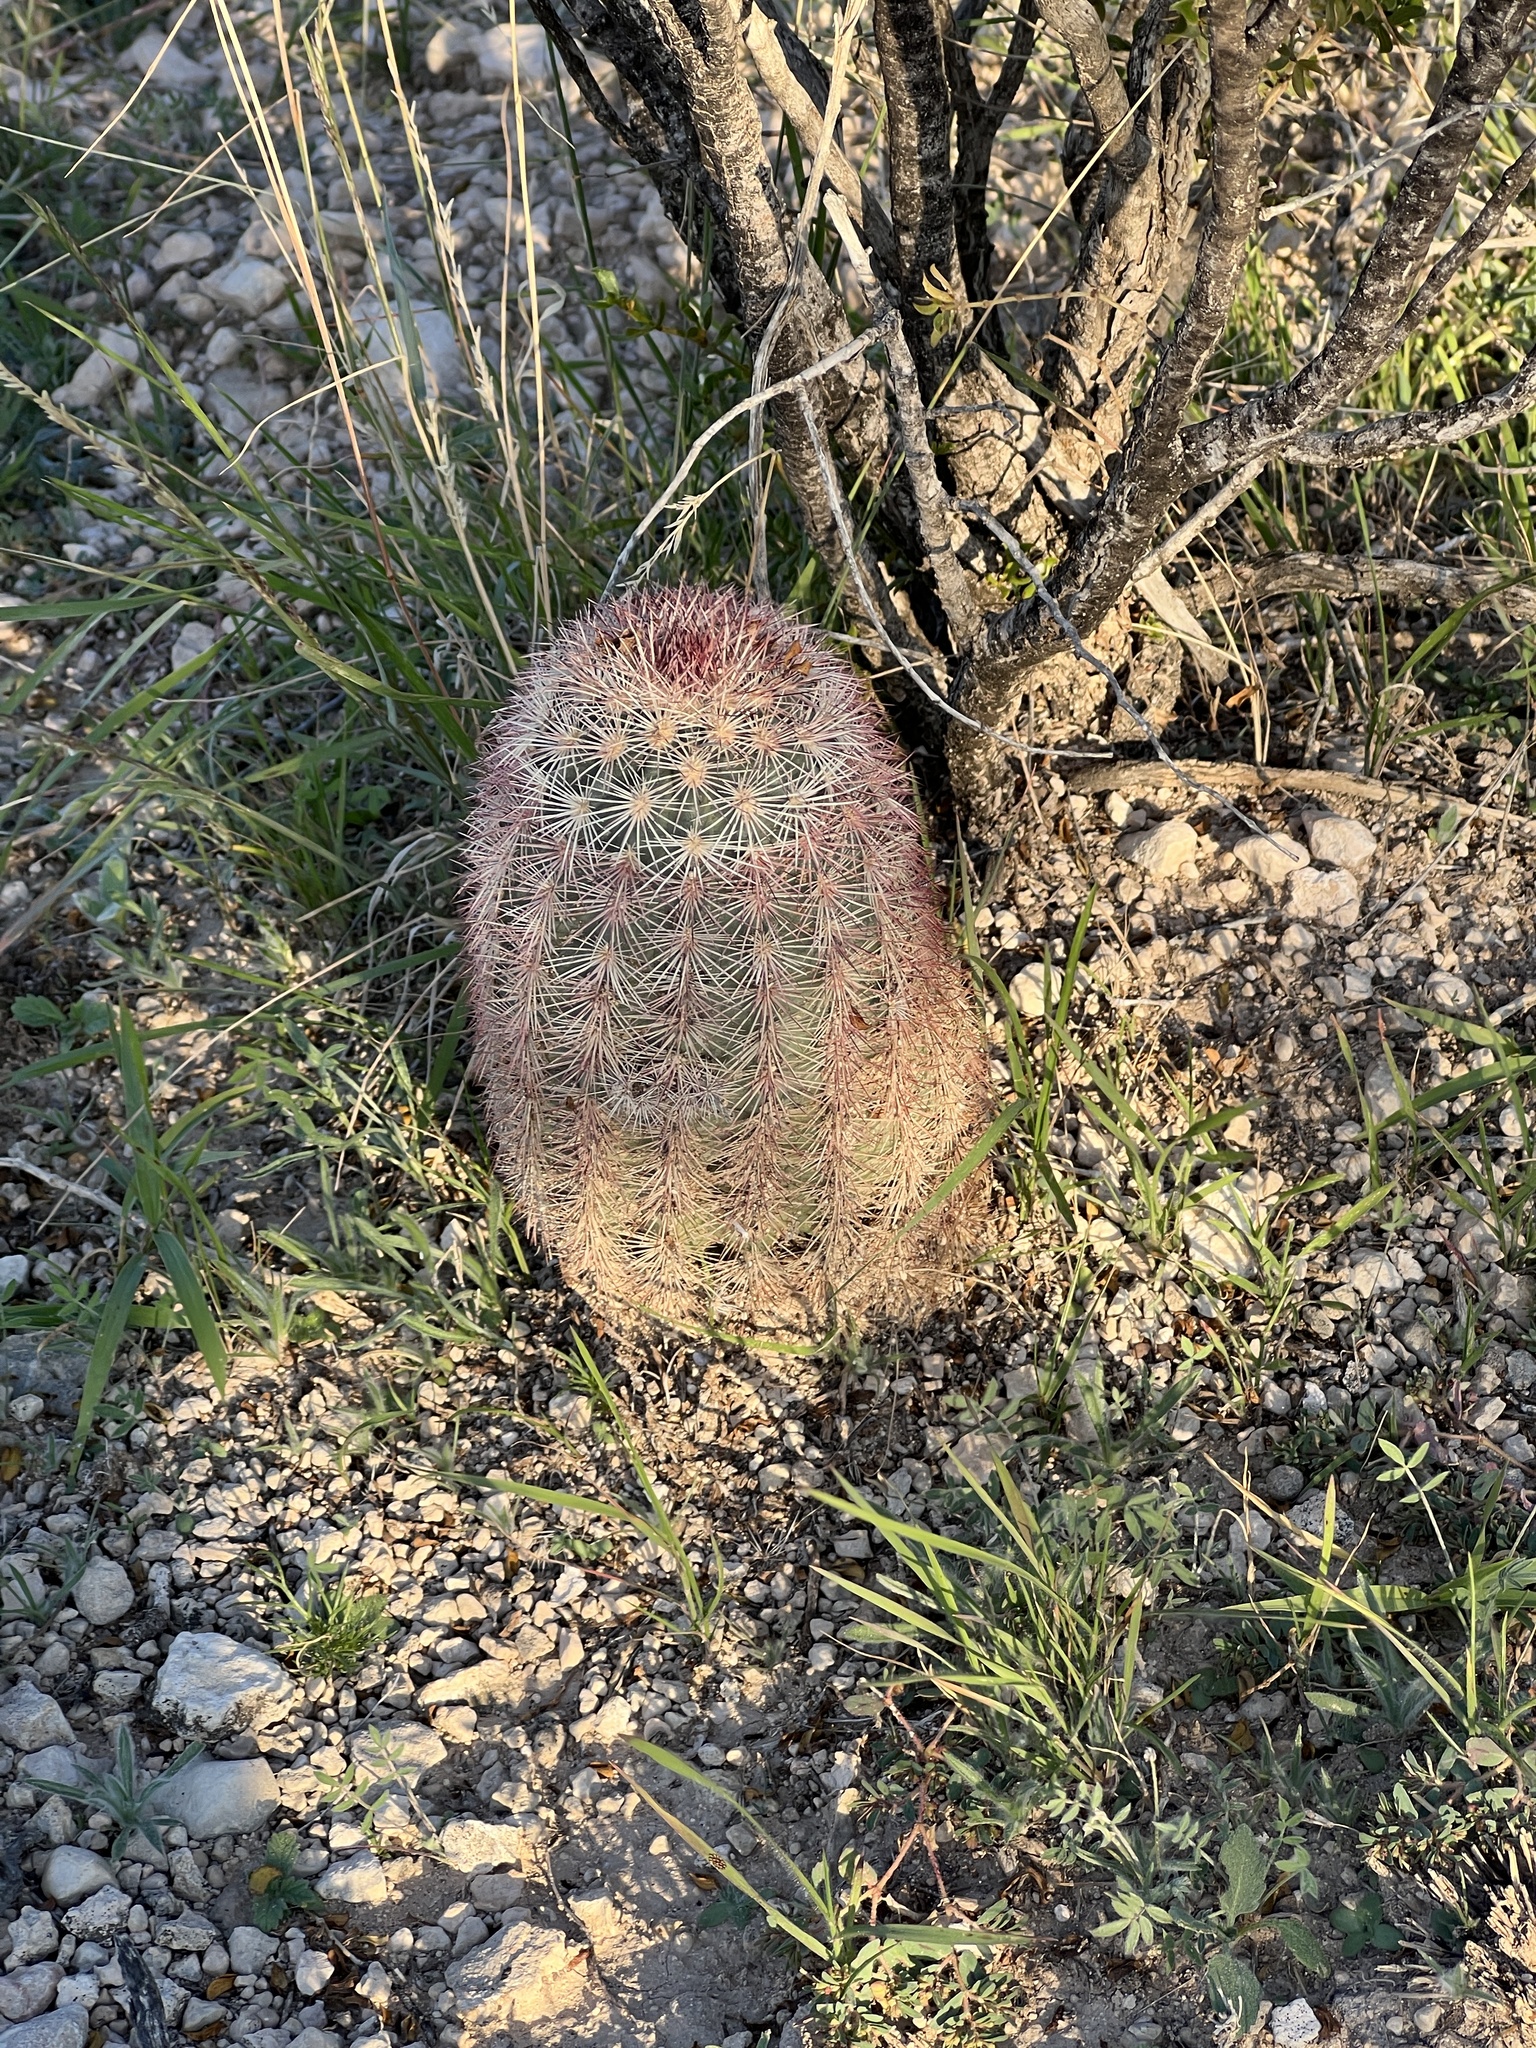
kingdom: Plantae
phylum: Tracheophyta
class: Magnoliopsida
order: Caryophyllales
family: Cactaceae
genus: Echinocereus
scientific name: Echinocereus dasyacanthus
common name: Spiny hedgehog cactus
